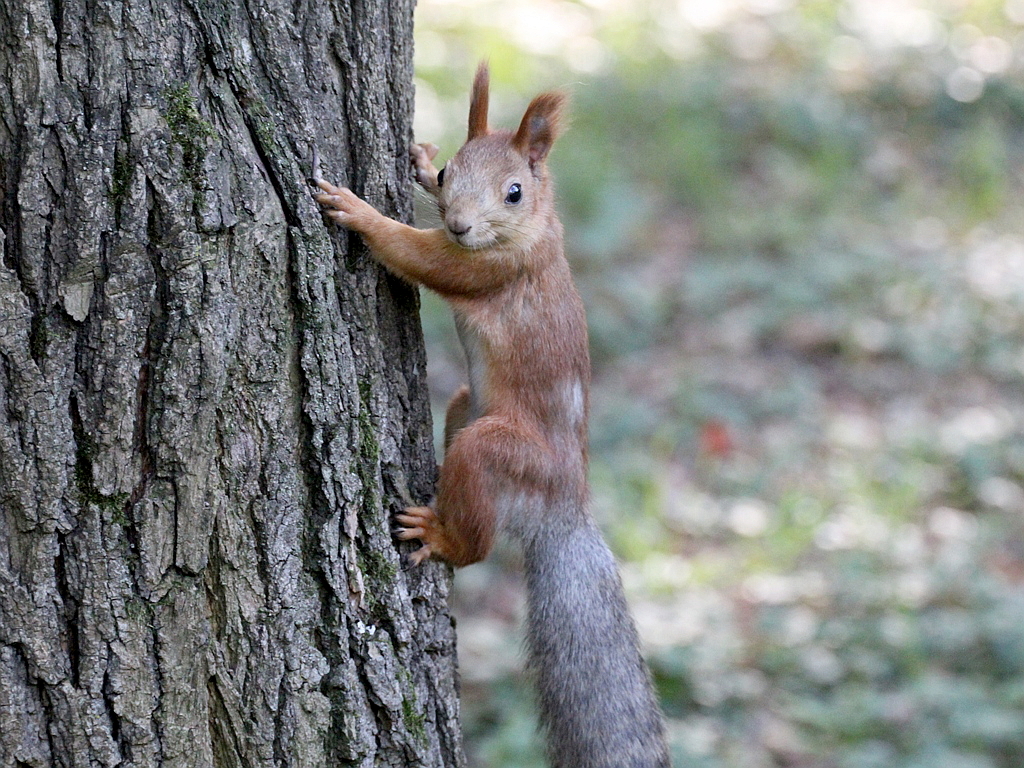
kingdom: Animalia
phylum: Chordata
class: Mammalia
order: Rodentia
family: Sciuridae
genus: Sciurus
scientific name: Sciurus vulgaris
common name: Eurasian red squirrel
